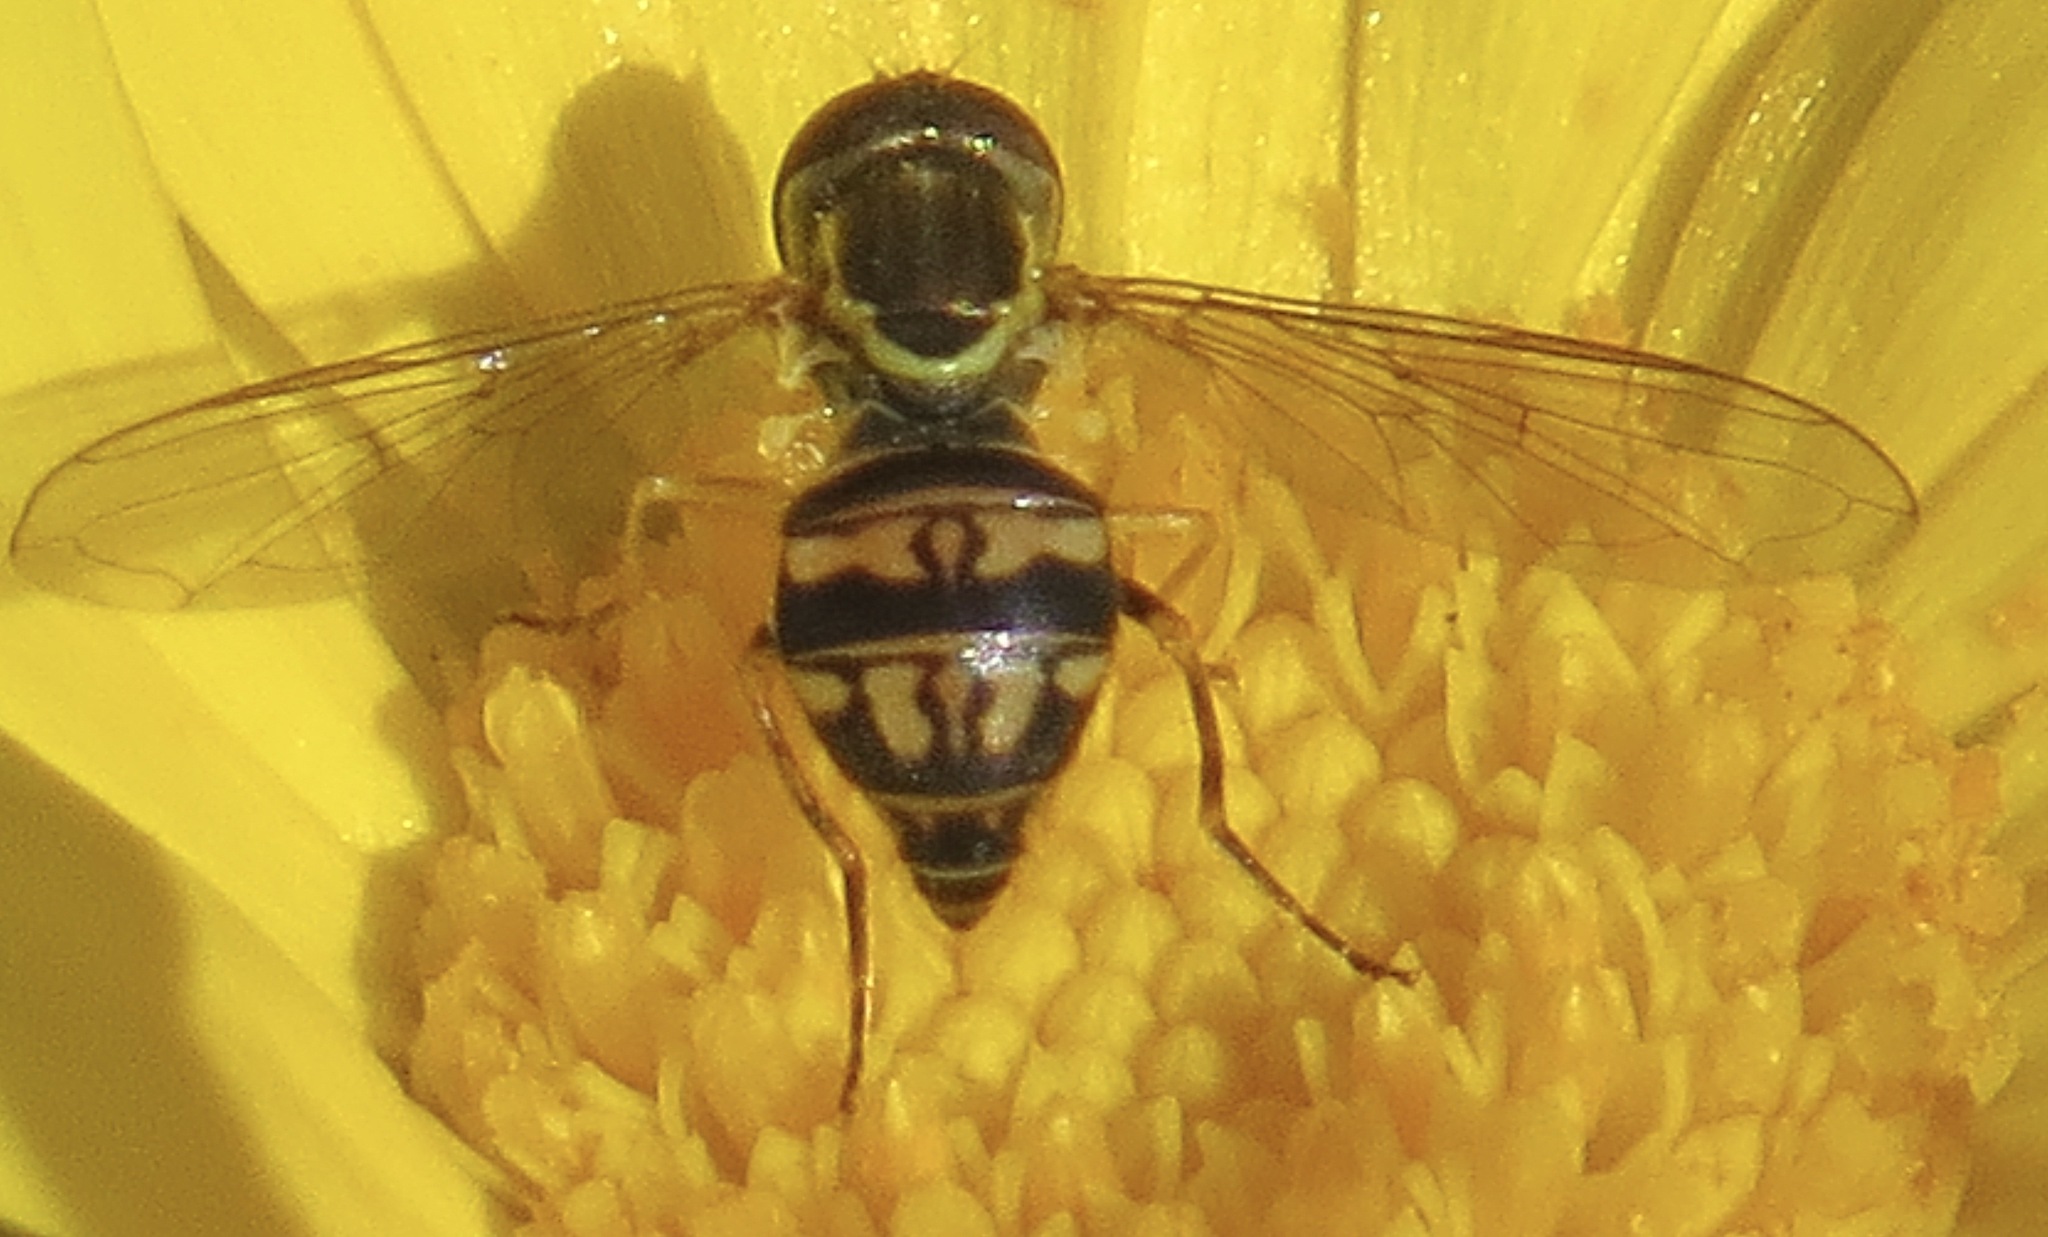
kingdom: Animalia
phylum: Arthropoda
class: Insecta
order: Diptera
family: Syrphidae
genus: Toxomerus
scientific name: Toxomerus occidentalis
